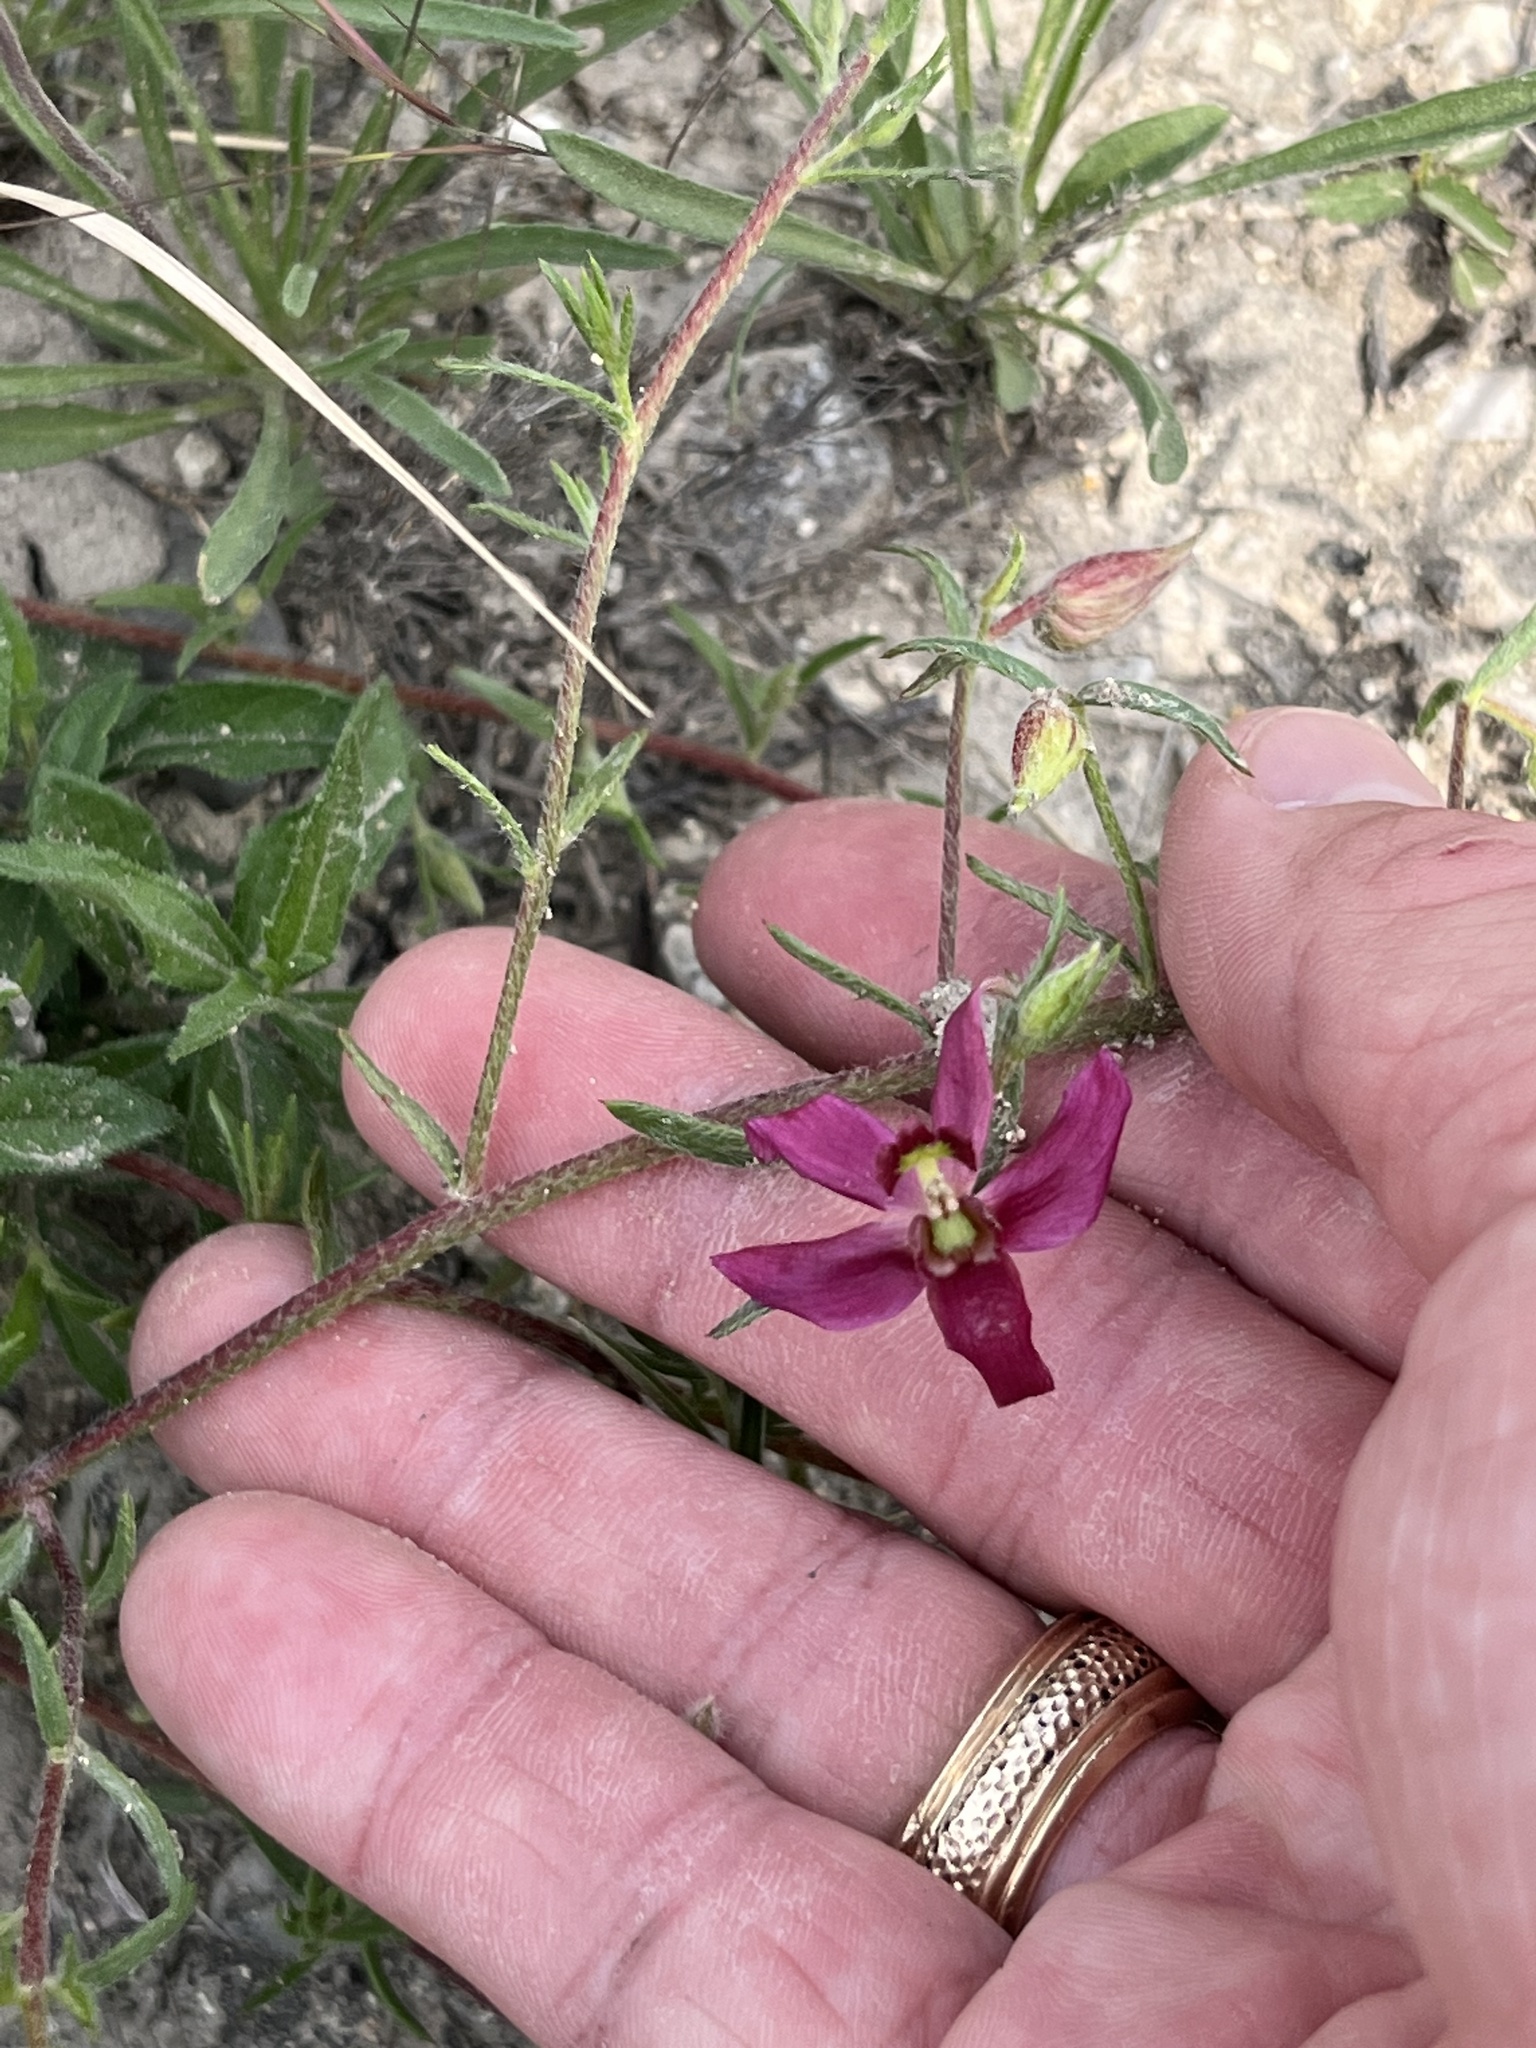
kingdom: Plantae
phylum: Tracheophyta
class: Magnoliopsida
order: Zygophyllales
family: Krameriaceae
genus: Krameria
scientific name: Krameria lanceolata
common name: Ratany
